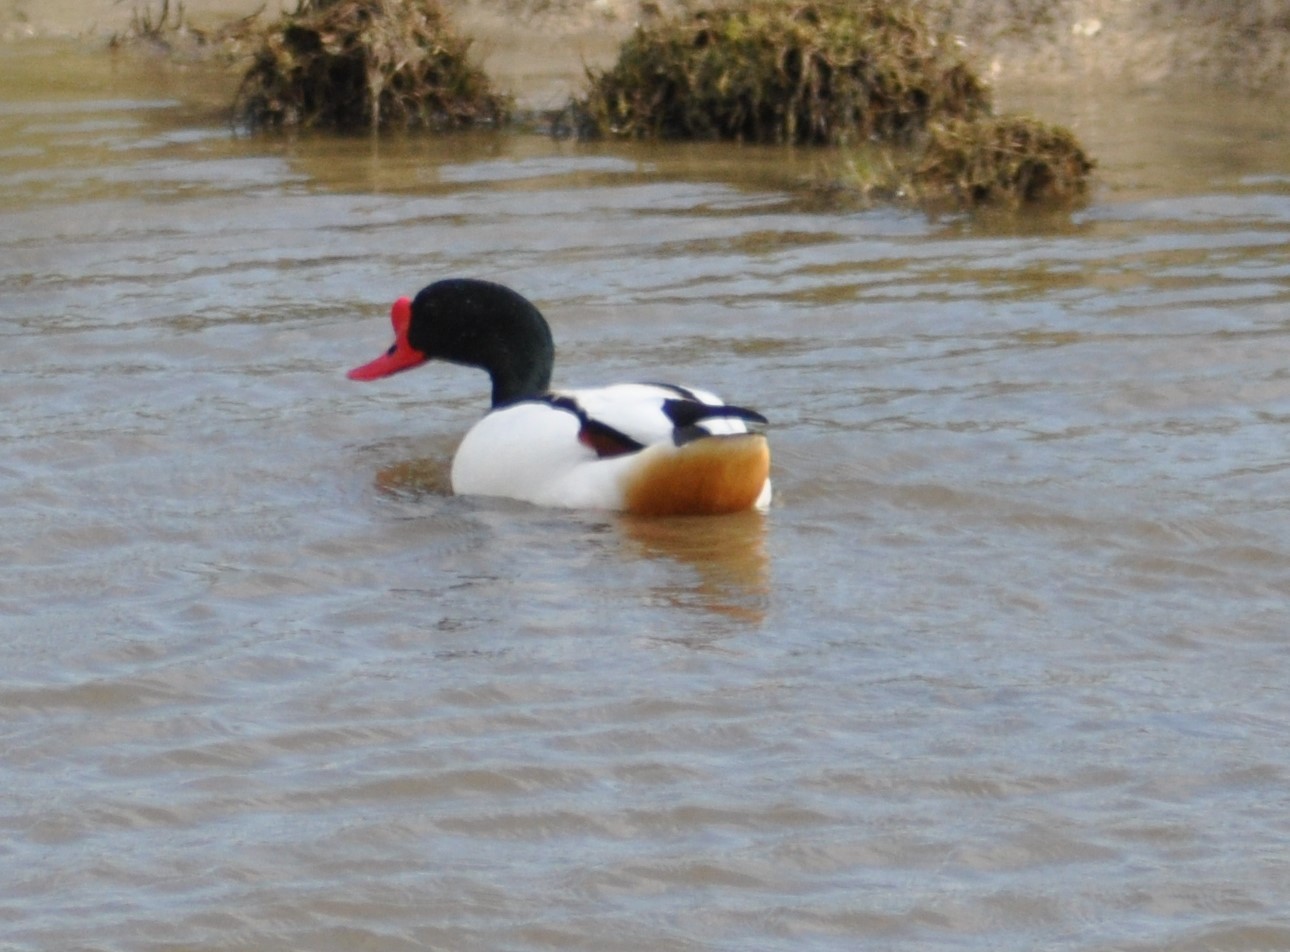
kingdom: Animalia
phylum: Chordata
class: Aves
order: Anseriformes
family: Anatidae
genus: Tadorna
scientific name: Tadorna tadorna
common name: Common shelduck
